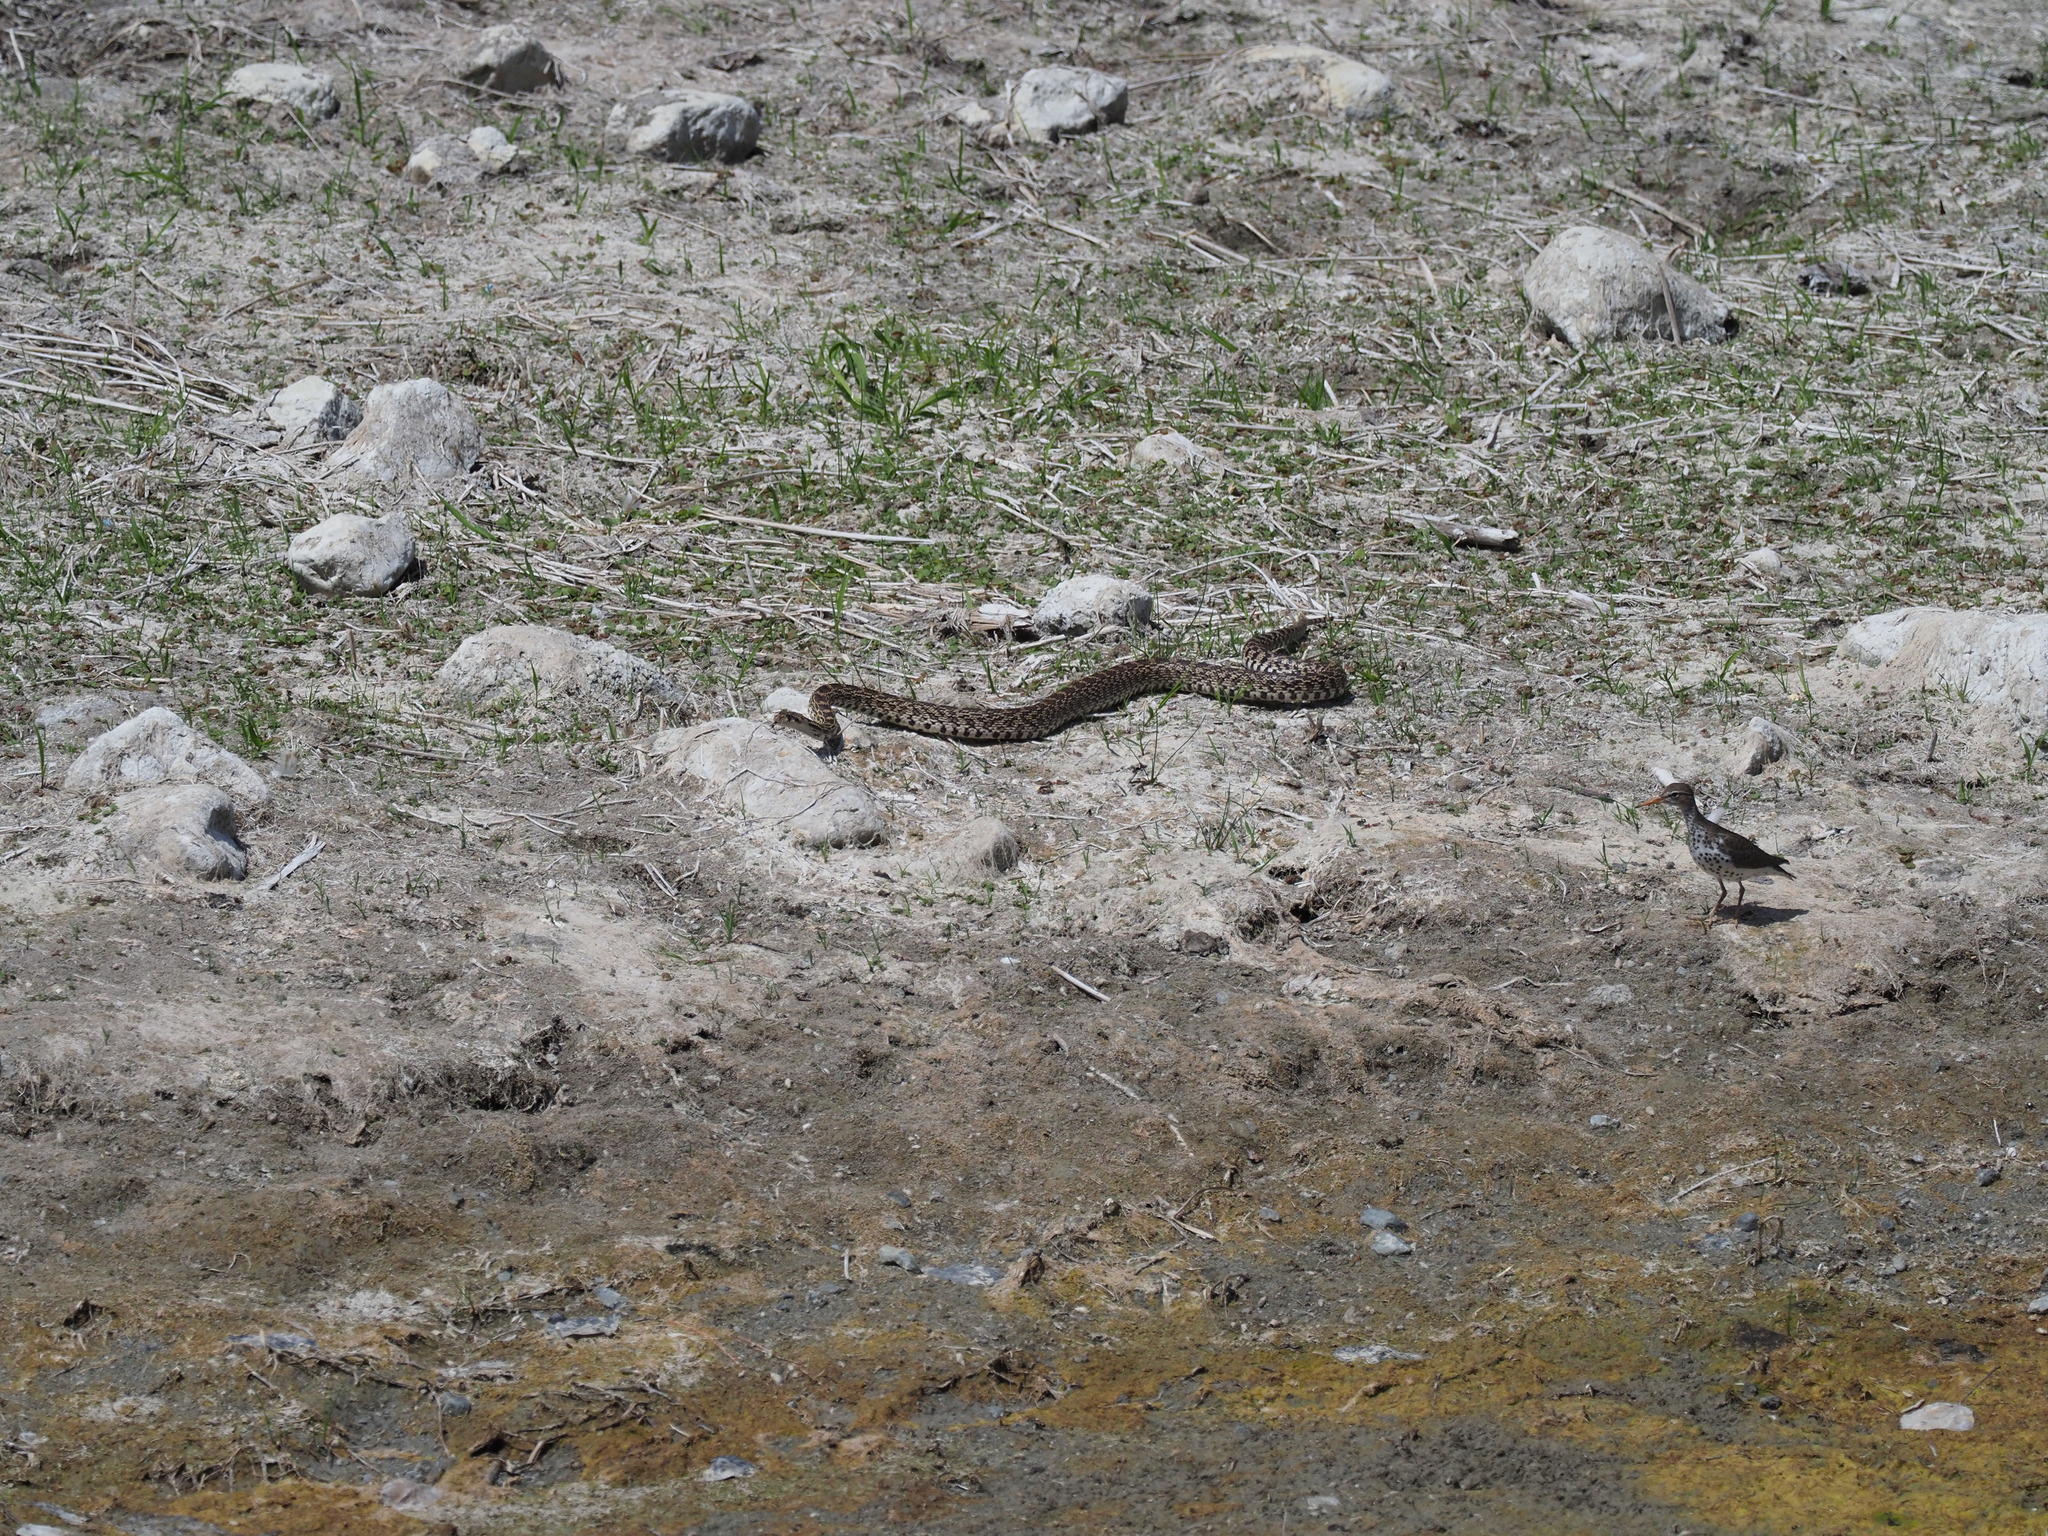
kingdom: Animalia
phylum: Chordata
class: Aves
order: Charadriiformes
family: Scolopacidae
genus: Actitis
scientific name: Actitis macularius
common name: Spotted sandpiper
